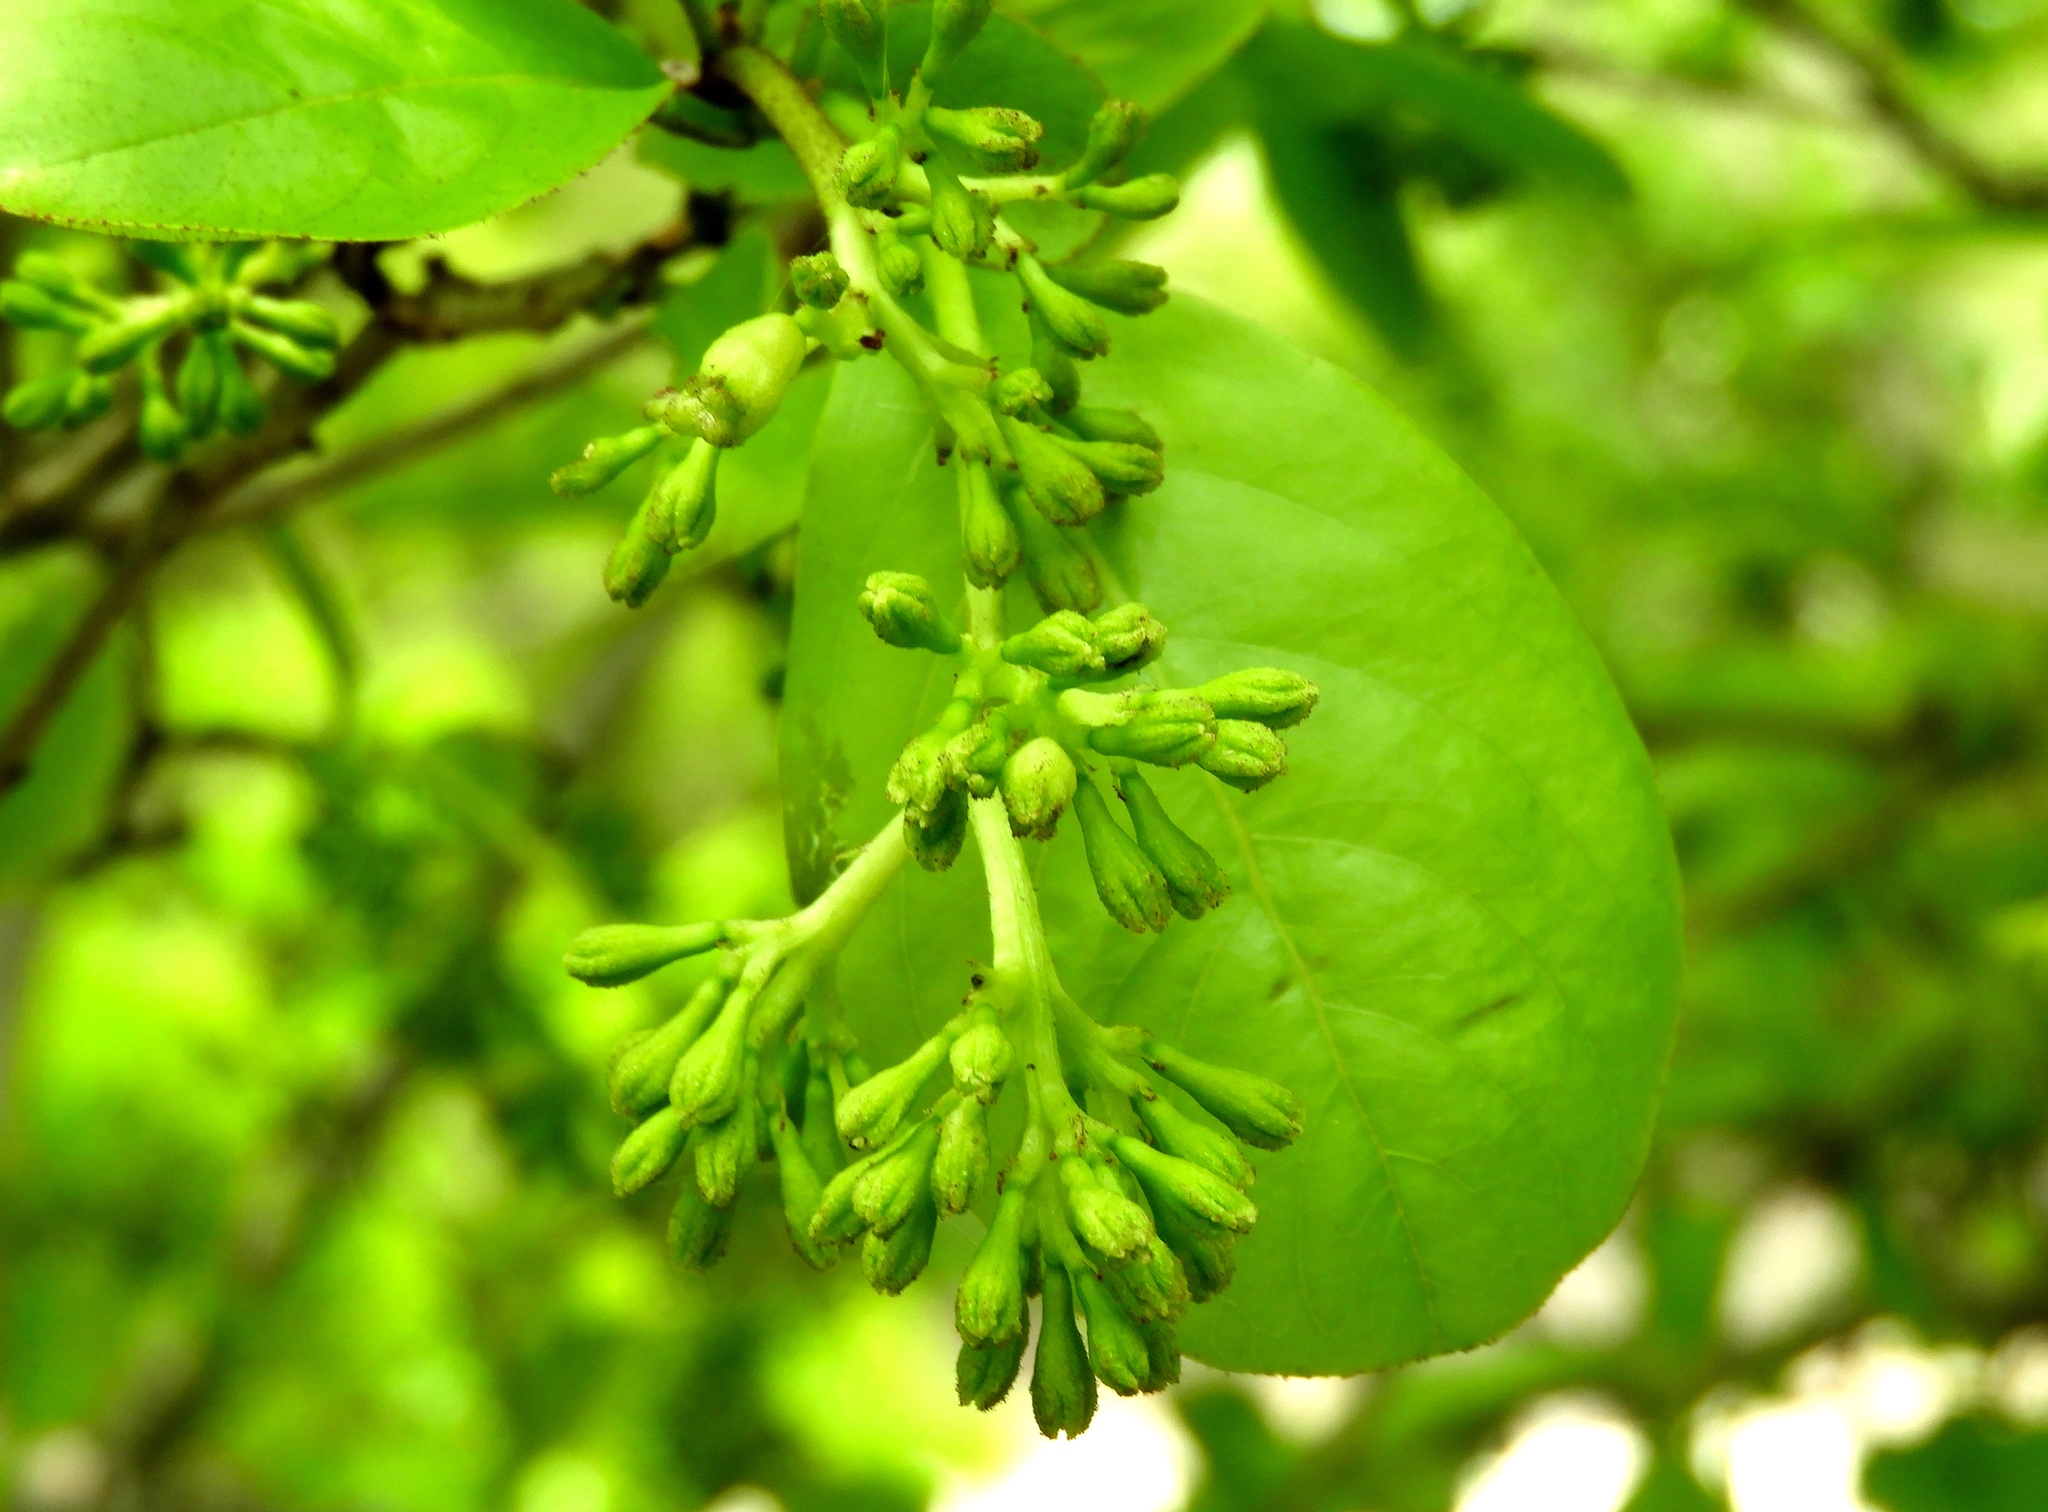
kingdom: Plantae
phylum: Tracheophyta
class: Magnoliopsida
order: Caryophyllales
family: Nyctaginaceae
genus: Neea
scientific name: Neea psychotrioides
